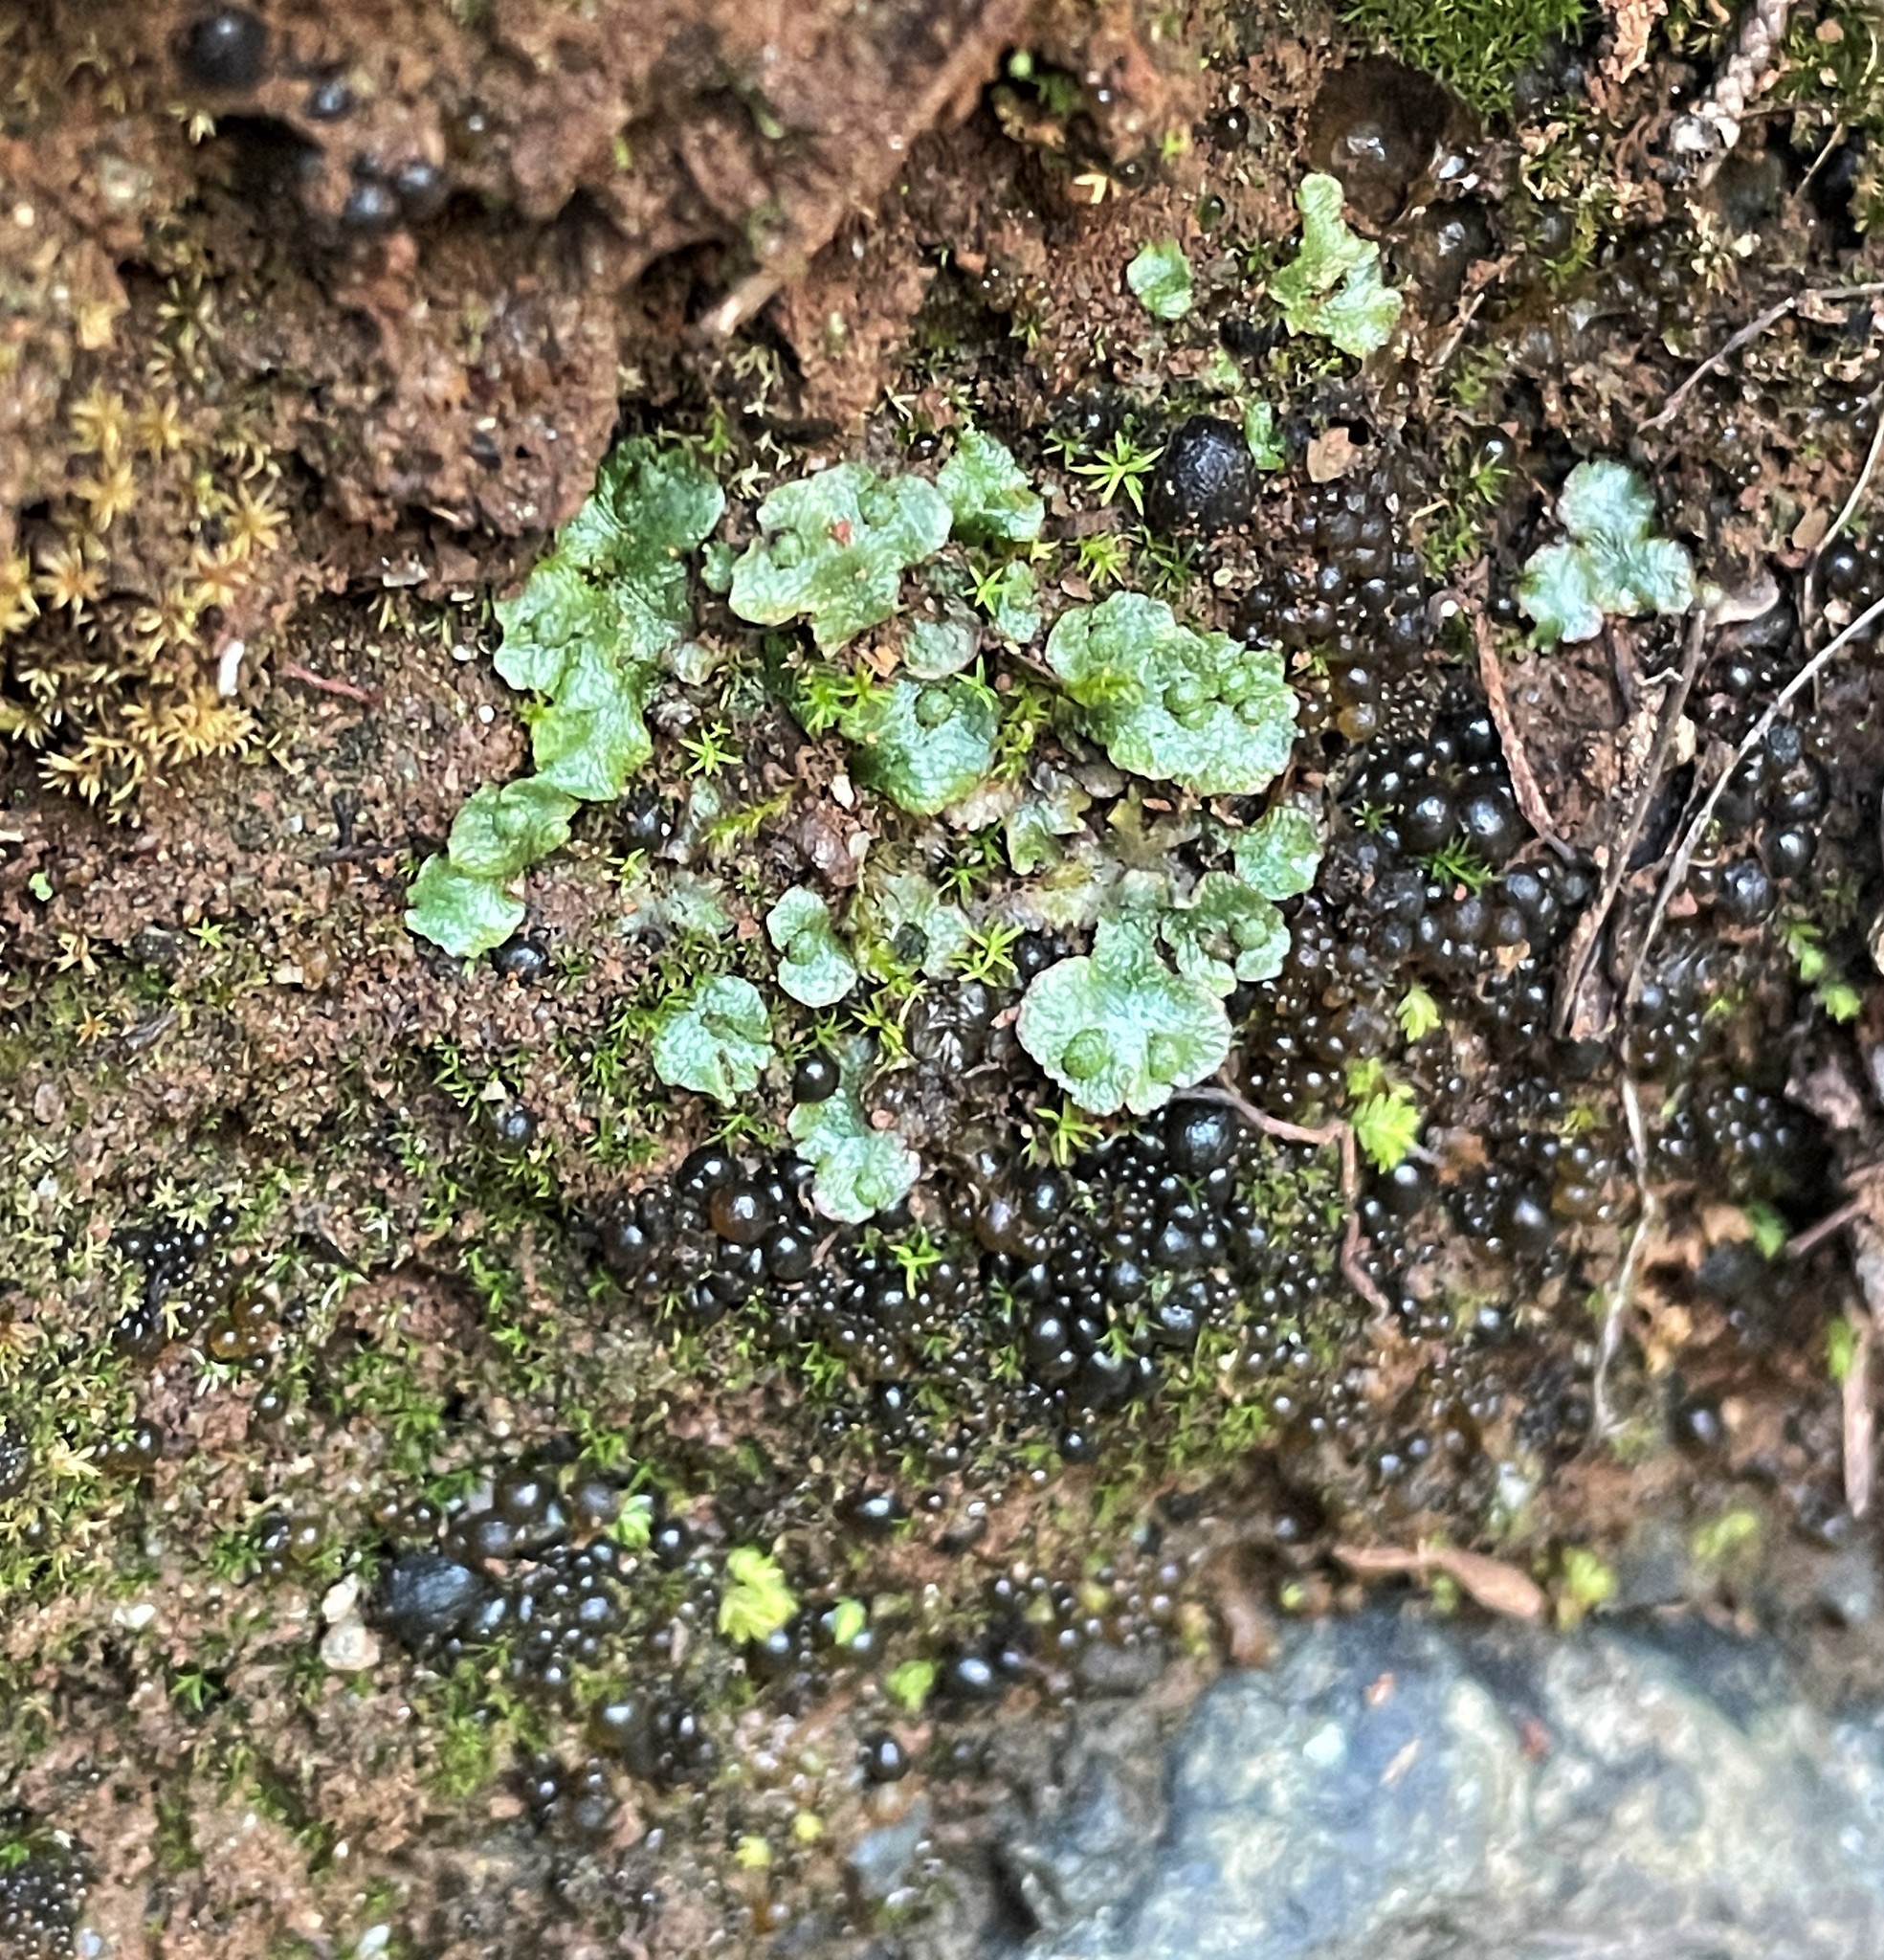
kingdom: Plantae
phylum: Marchantiophyta
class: Marchantiopsida
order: Marchantiales
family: Cleveaceae
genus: Clevea
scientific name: Clevea hyalina
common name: Hyaline liverwort
